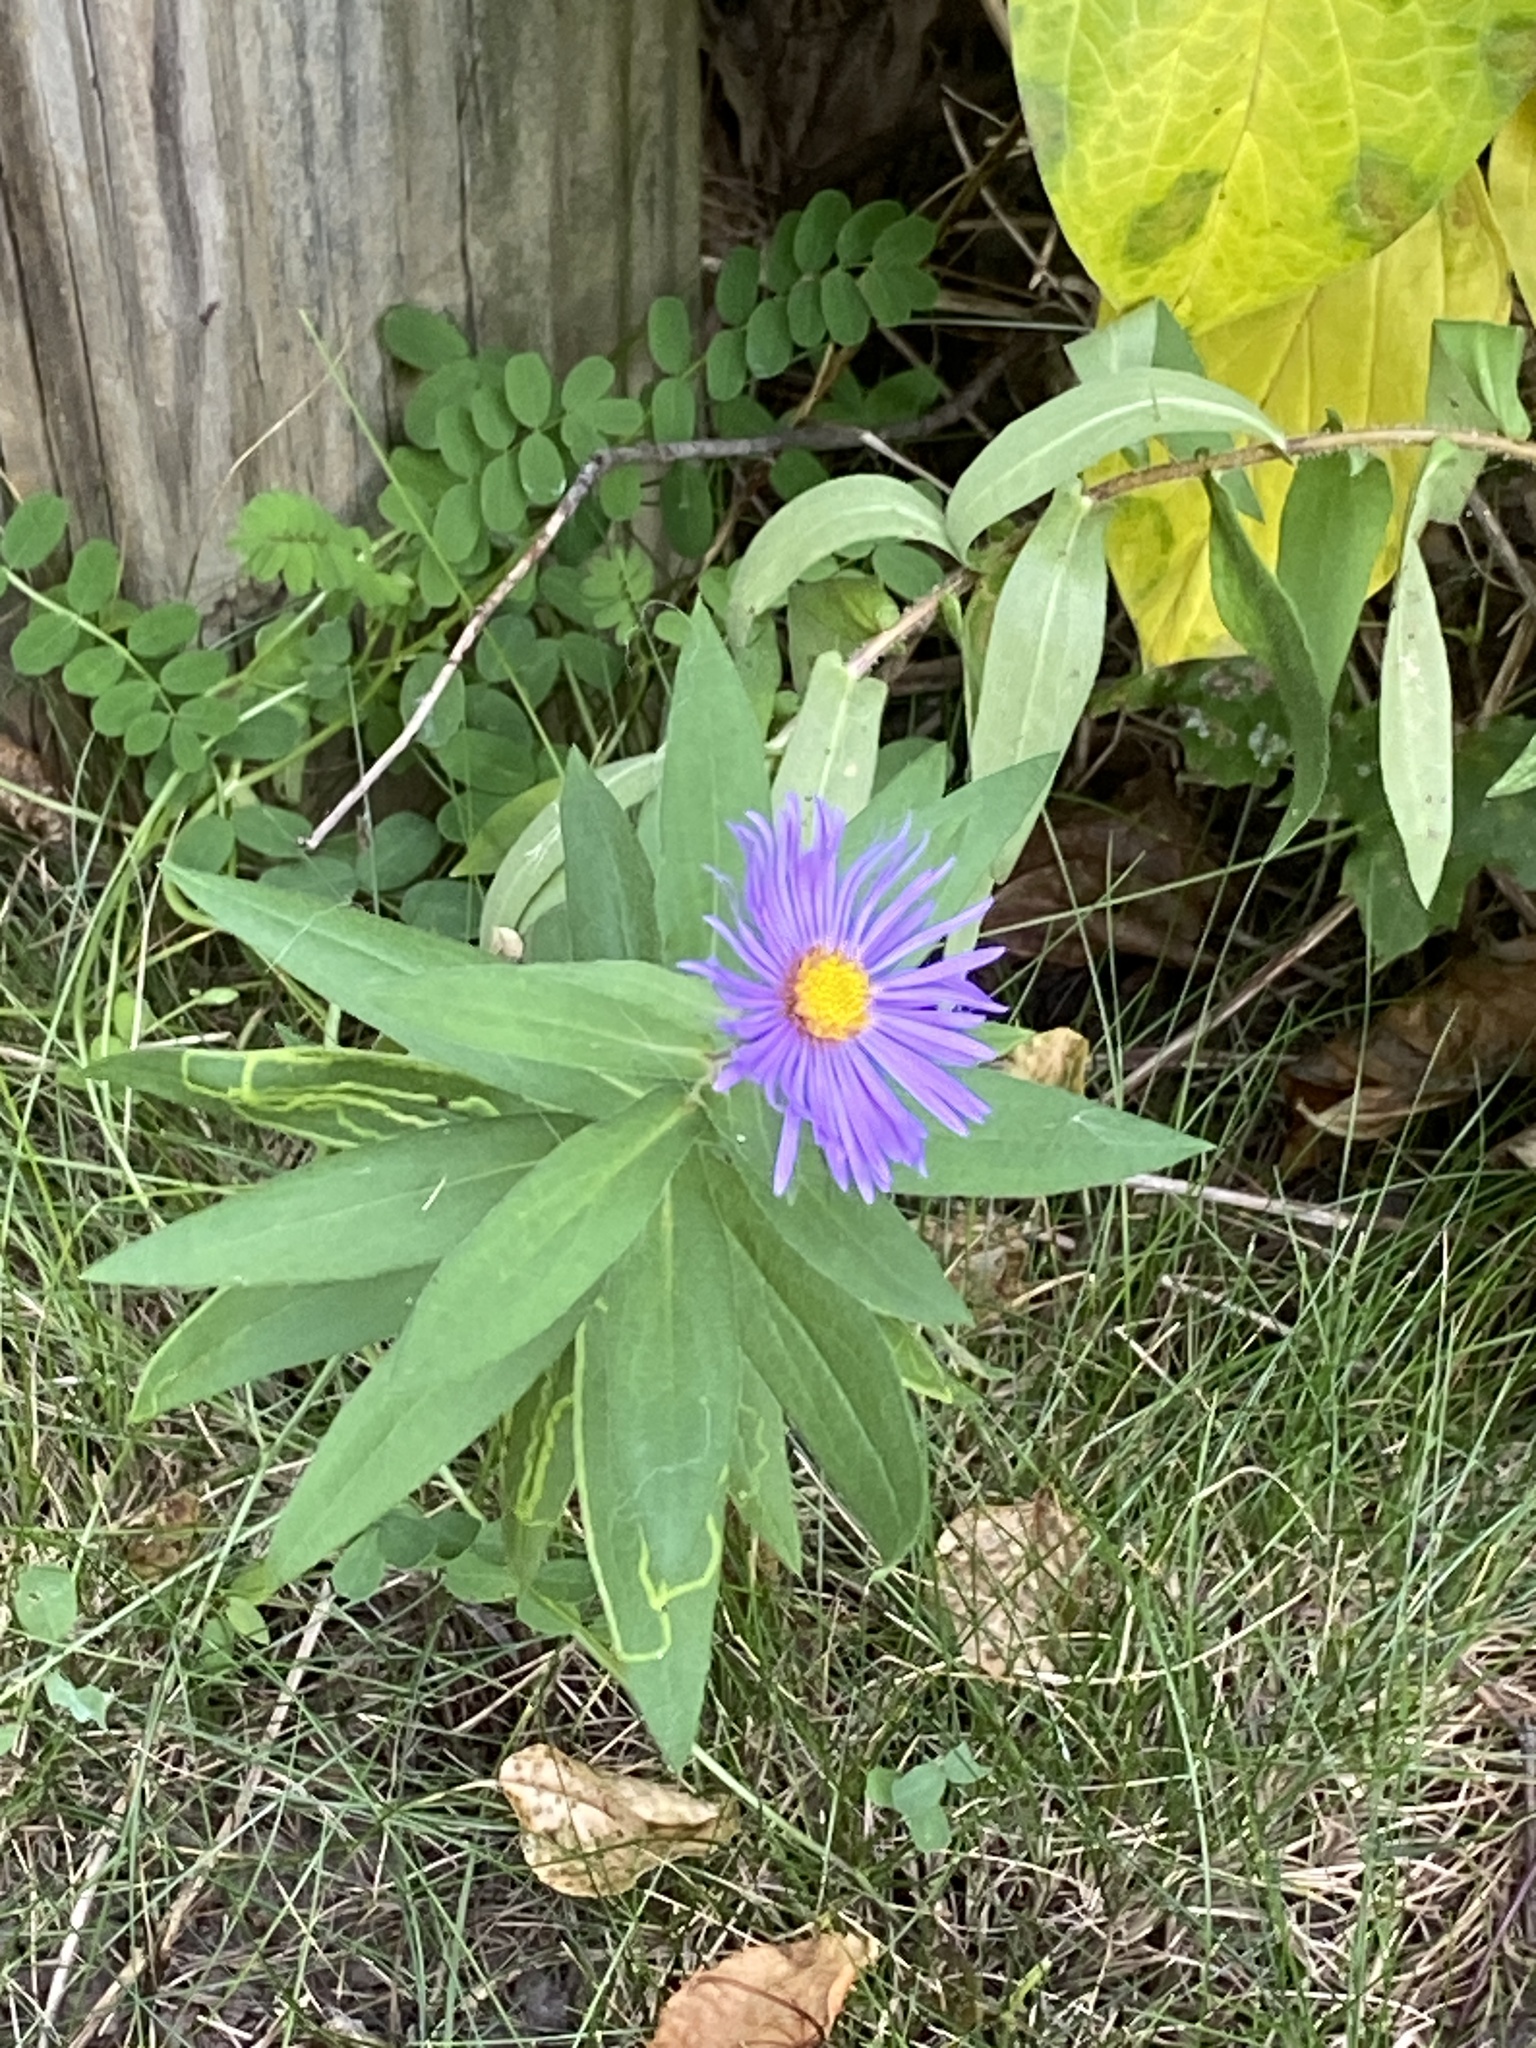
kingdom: Plantae
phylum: Tracheophyta
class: Magnoliopsida
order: Asterales
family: Asteraceae
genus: Symphyotrichum
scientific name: Symphyotrichum novae-angliae
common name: Michaelmas daisy
